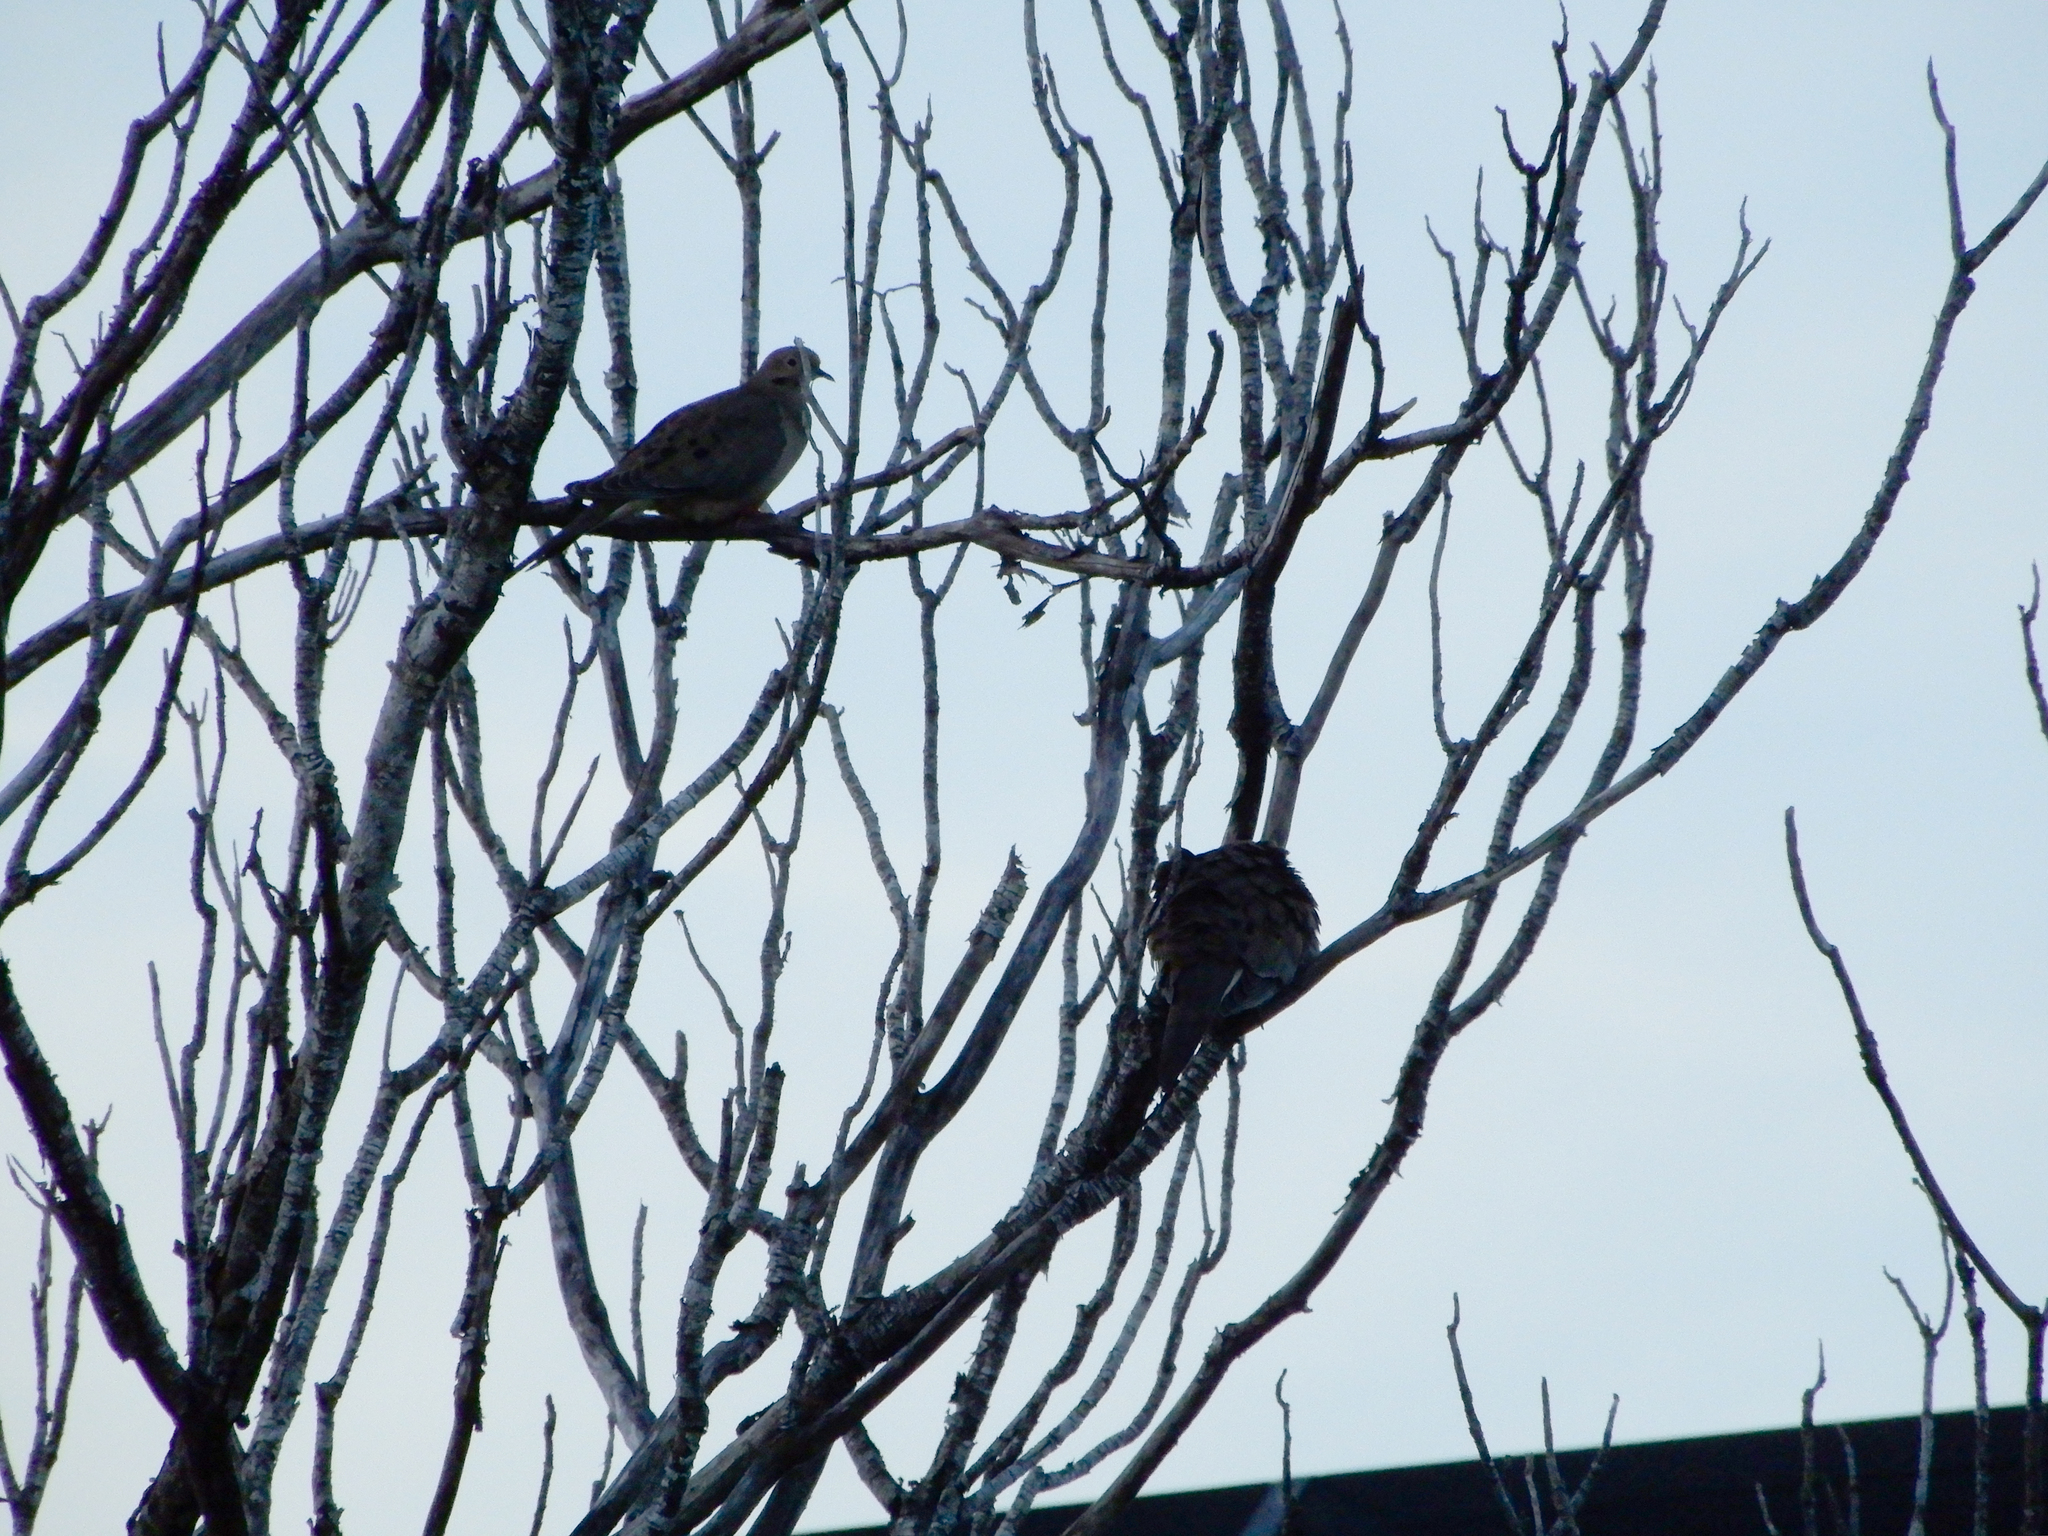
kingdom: Animalia
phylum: Chordata
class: Aves
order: Columbiformes
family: Columbidae
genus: Zenaida
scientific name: Zenaida macroura
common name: Mourning dove
